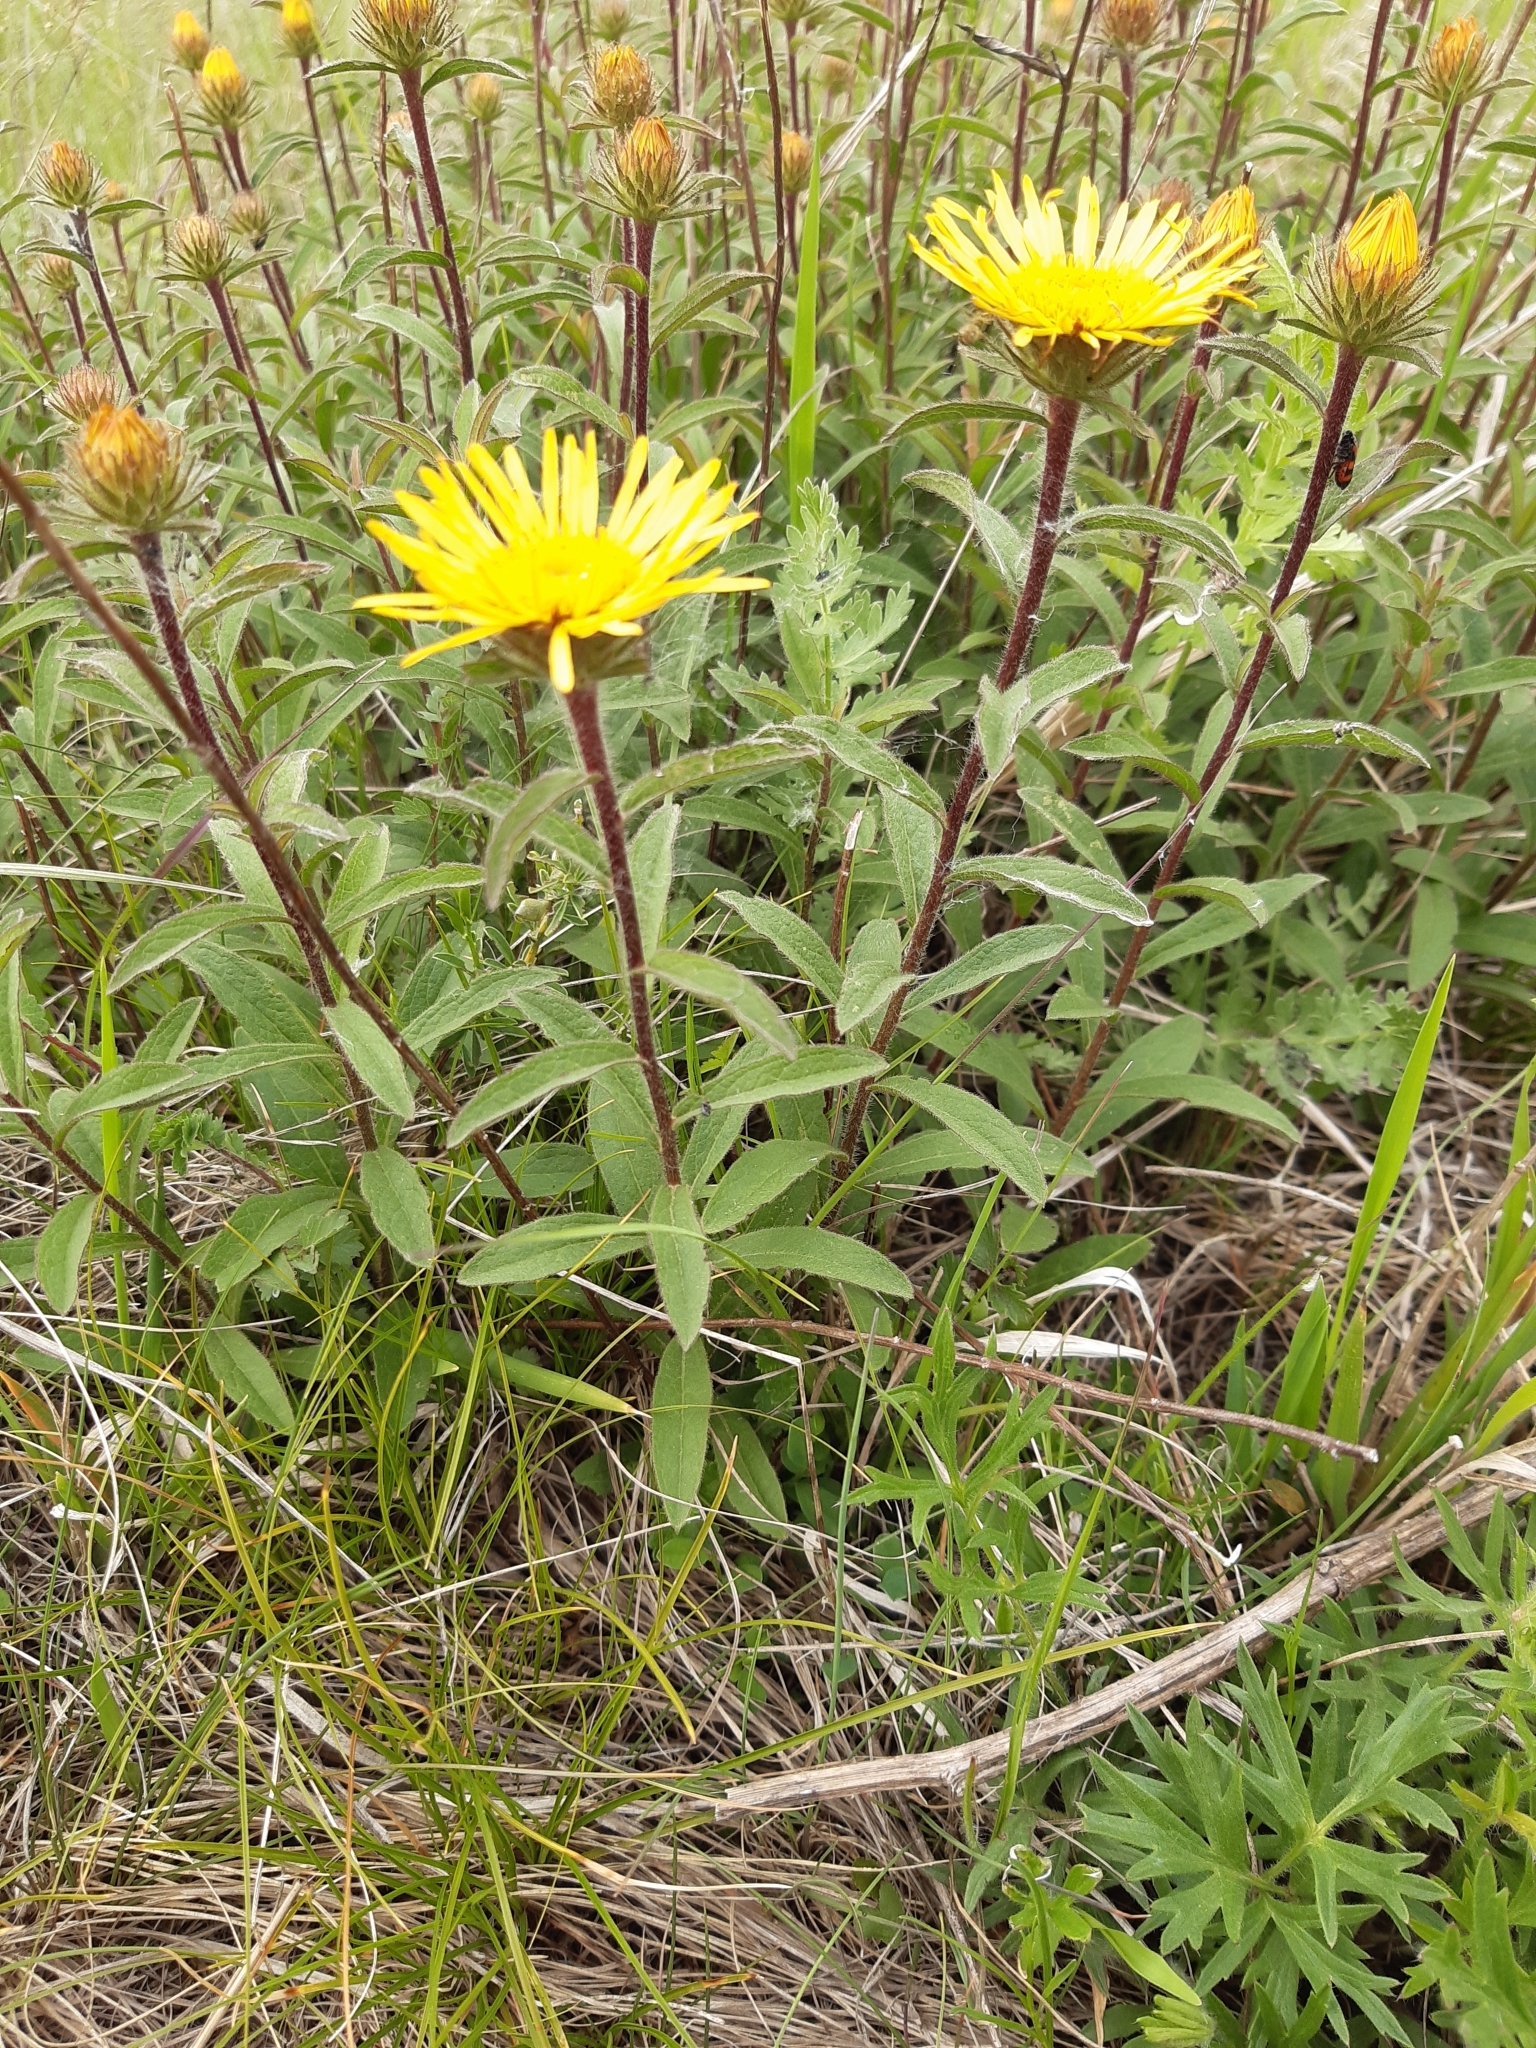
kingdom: Plantae
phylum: Tracheophyta
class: Magnoliopsida
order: Asterales
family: Asteraceae
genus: Pentanema
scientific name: Pentanema hirtum
